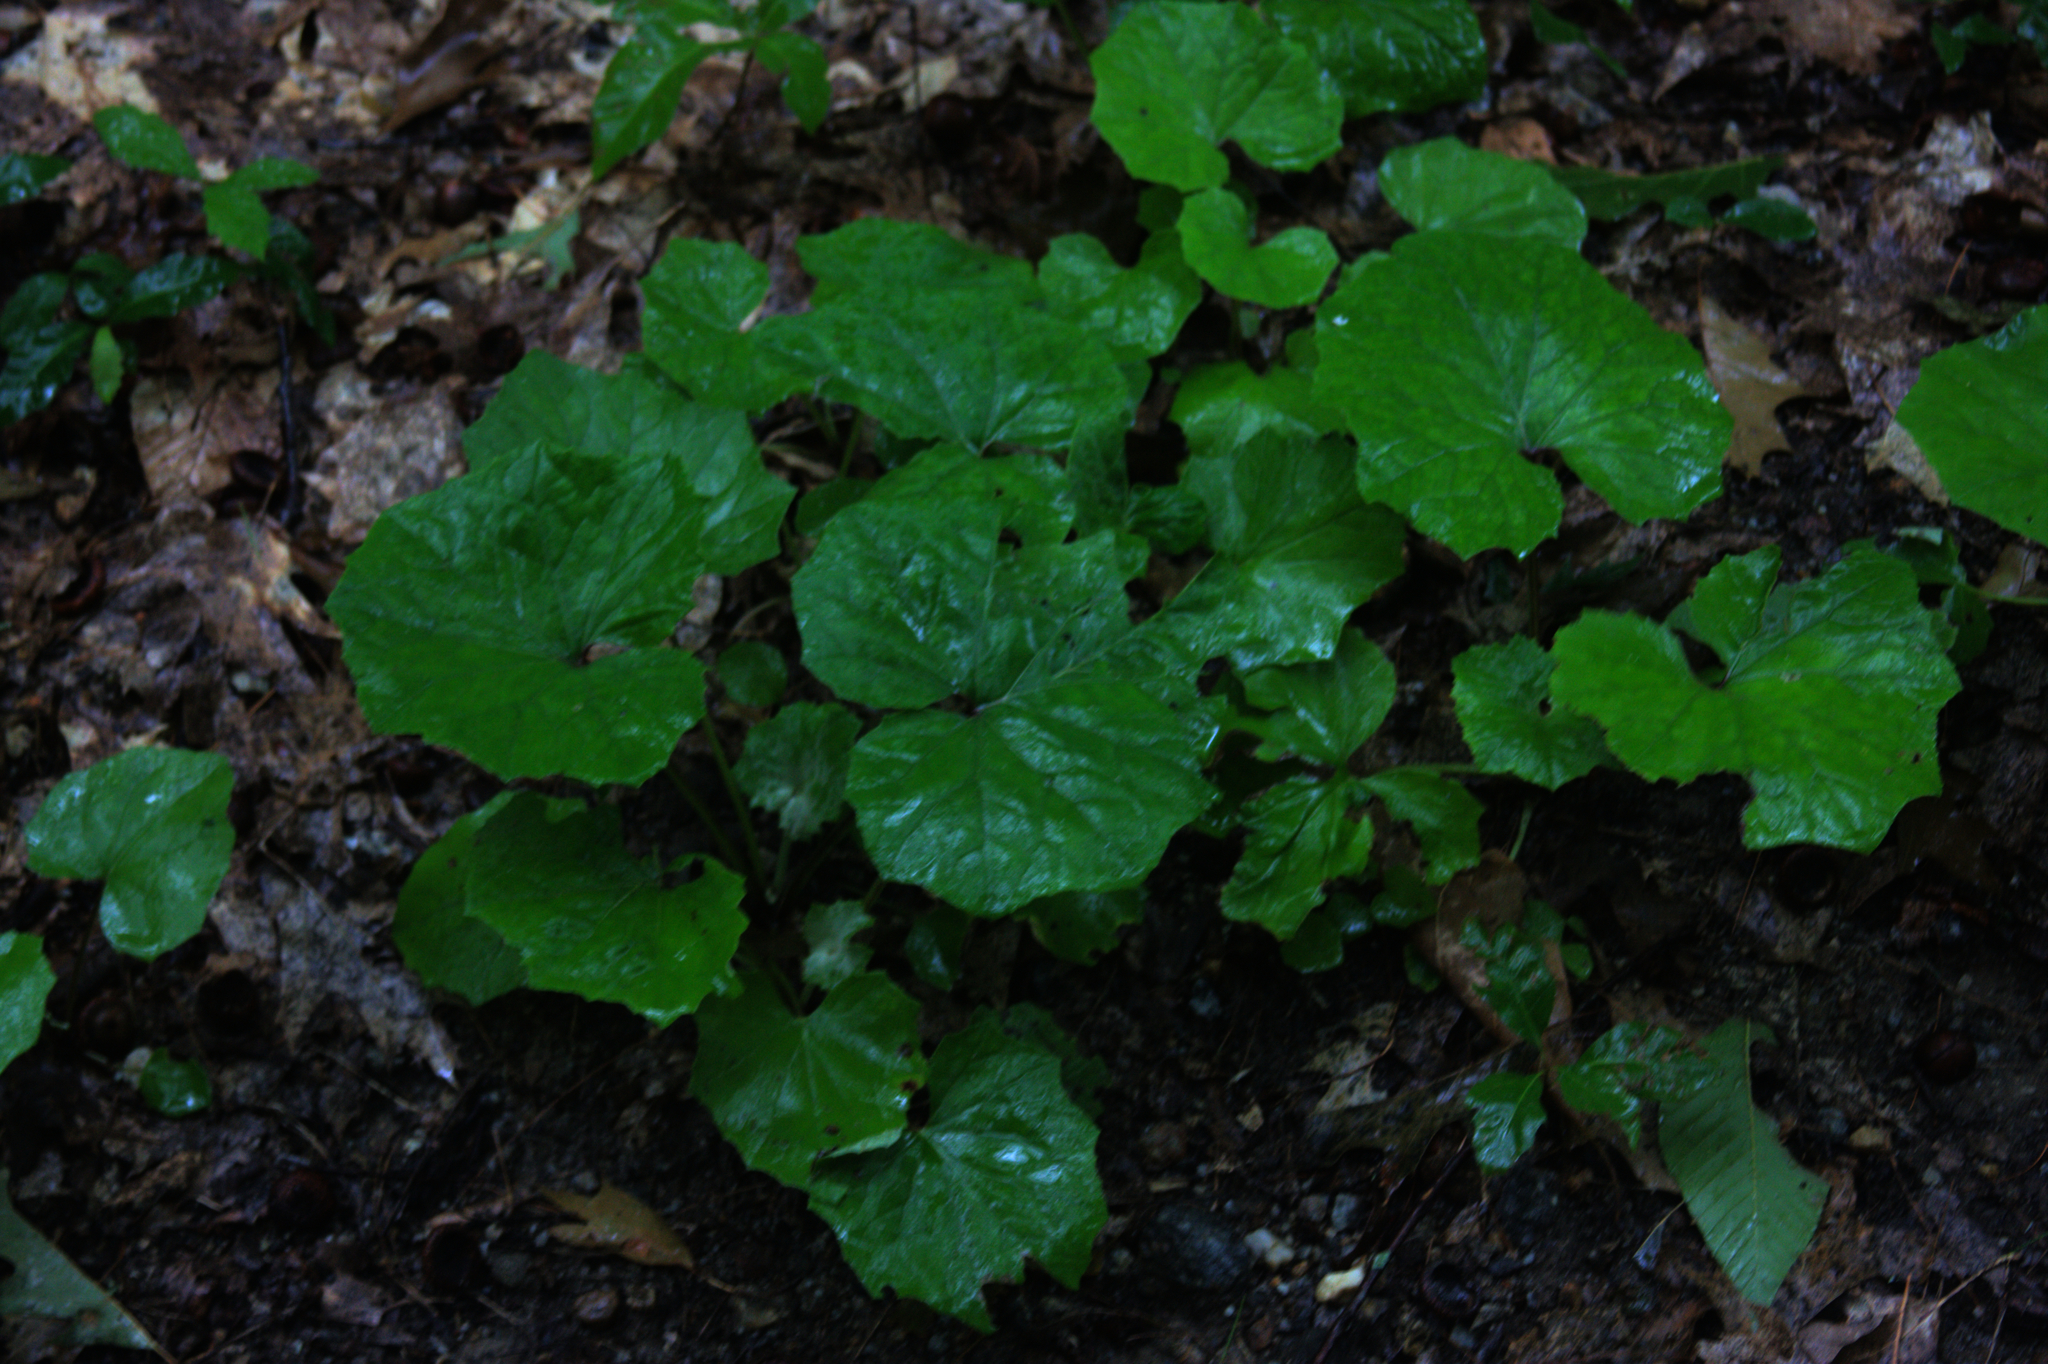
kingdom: Plantae
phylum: Tracheophyta
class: Magnoliopsida
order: Asterales
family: Asteraceae
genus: Tussilago
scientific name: Tussilago farfara
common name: Coltsfoot
